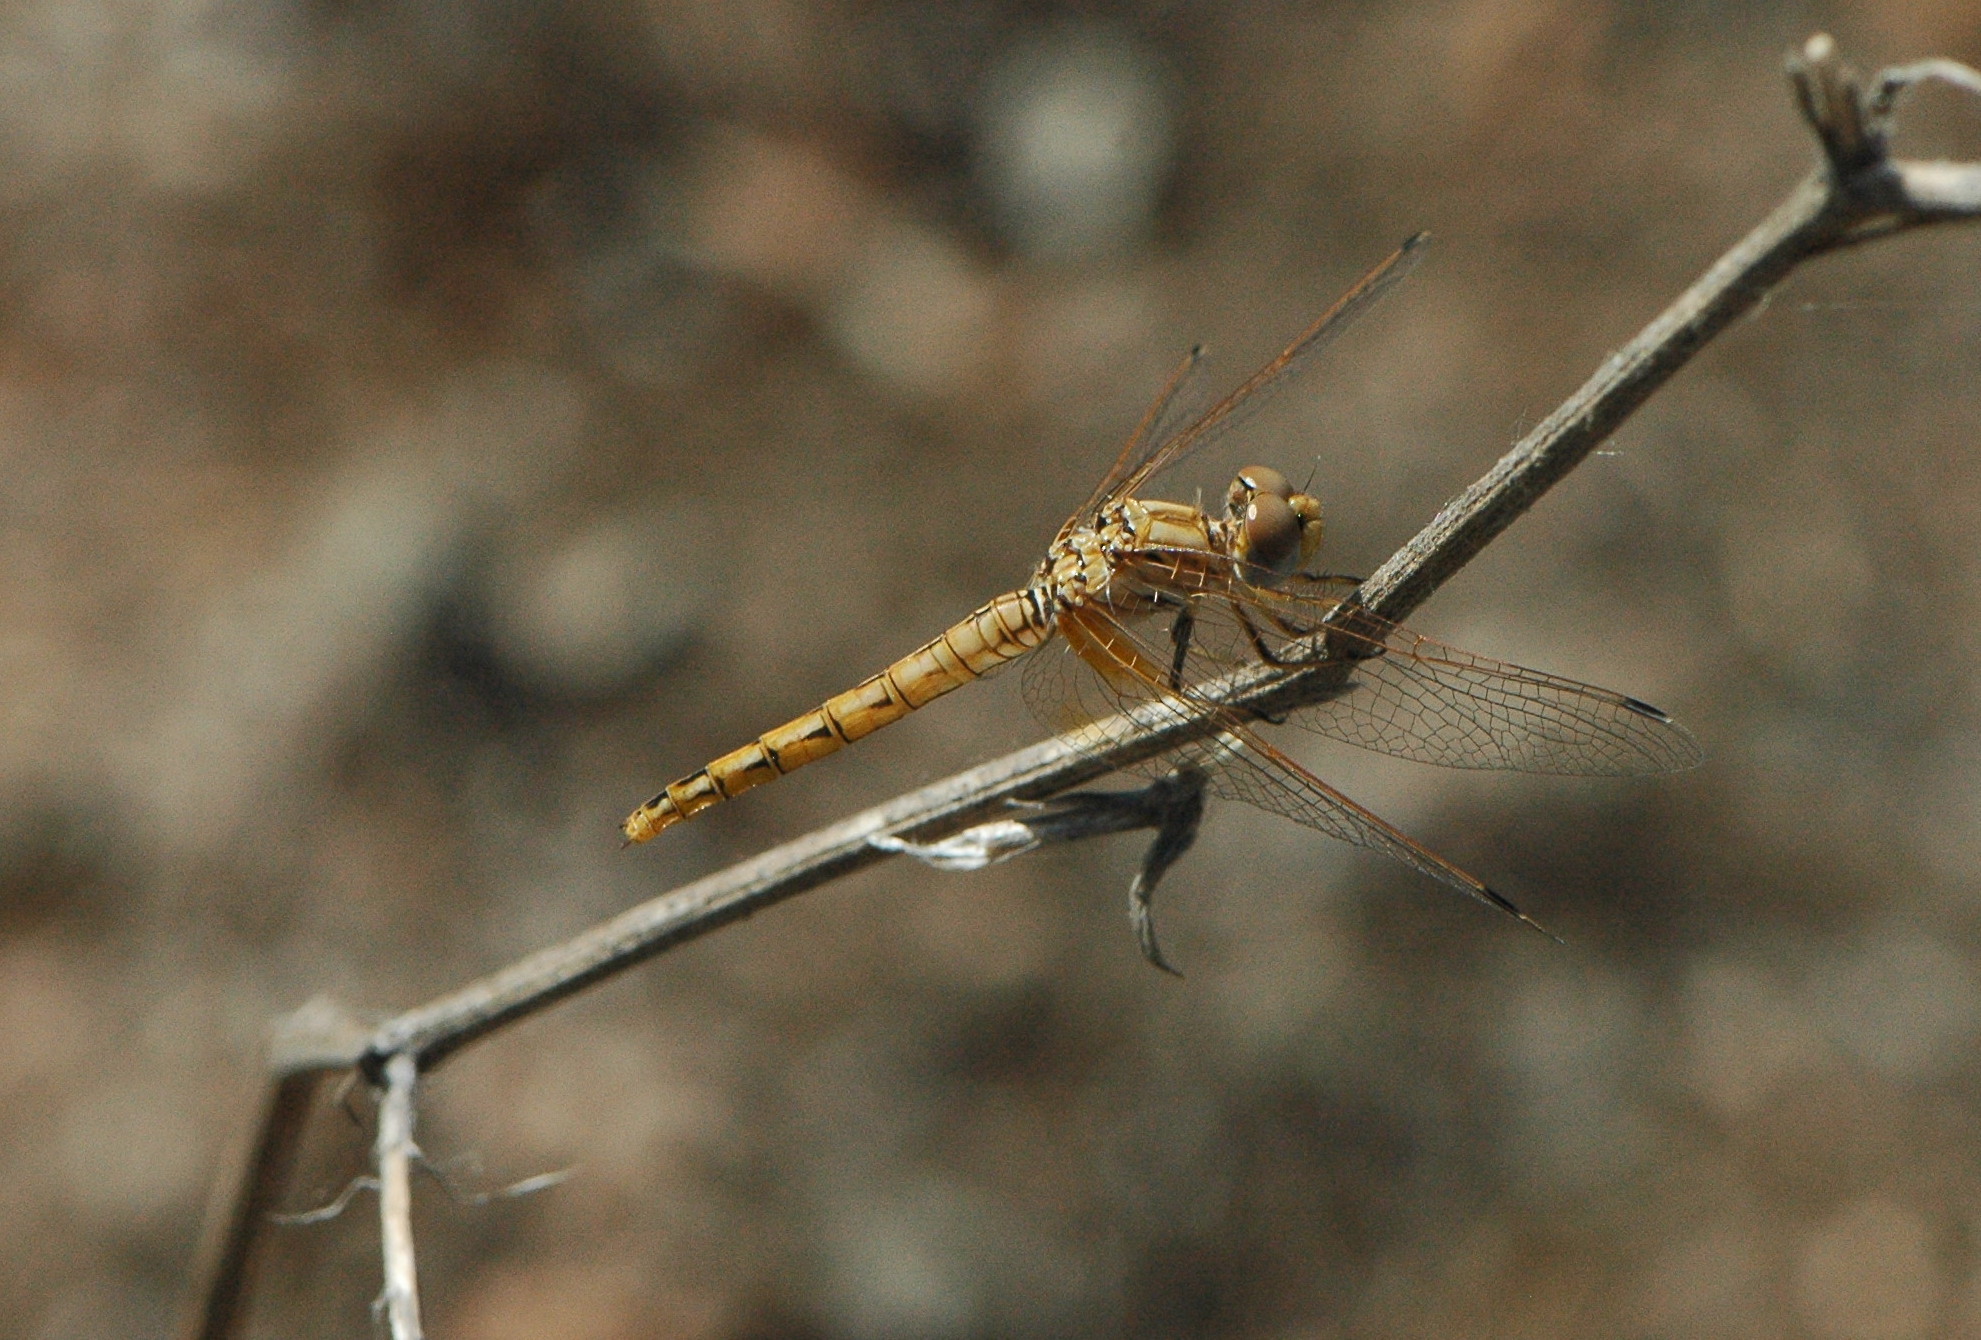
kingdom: Animalia
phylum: Arthropoda
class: Insecta
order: Odonata
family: Libellulidae
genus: Trithemis
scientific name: Trithemis kirbyi
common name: Kirby's dropwing
